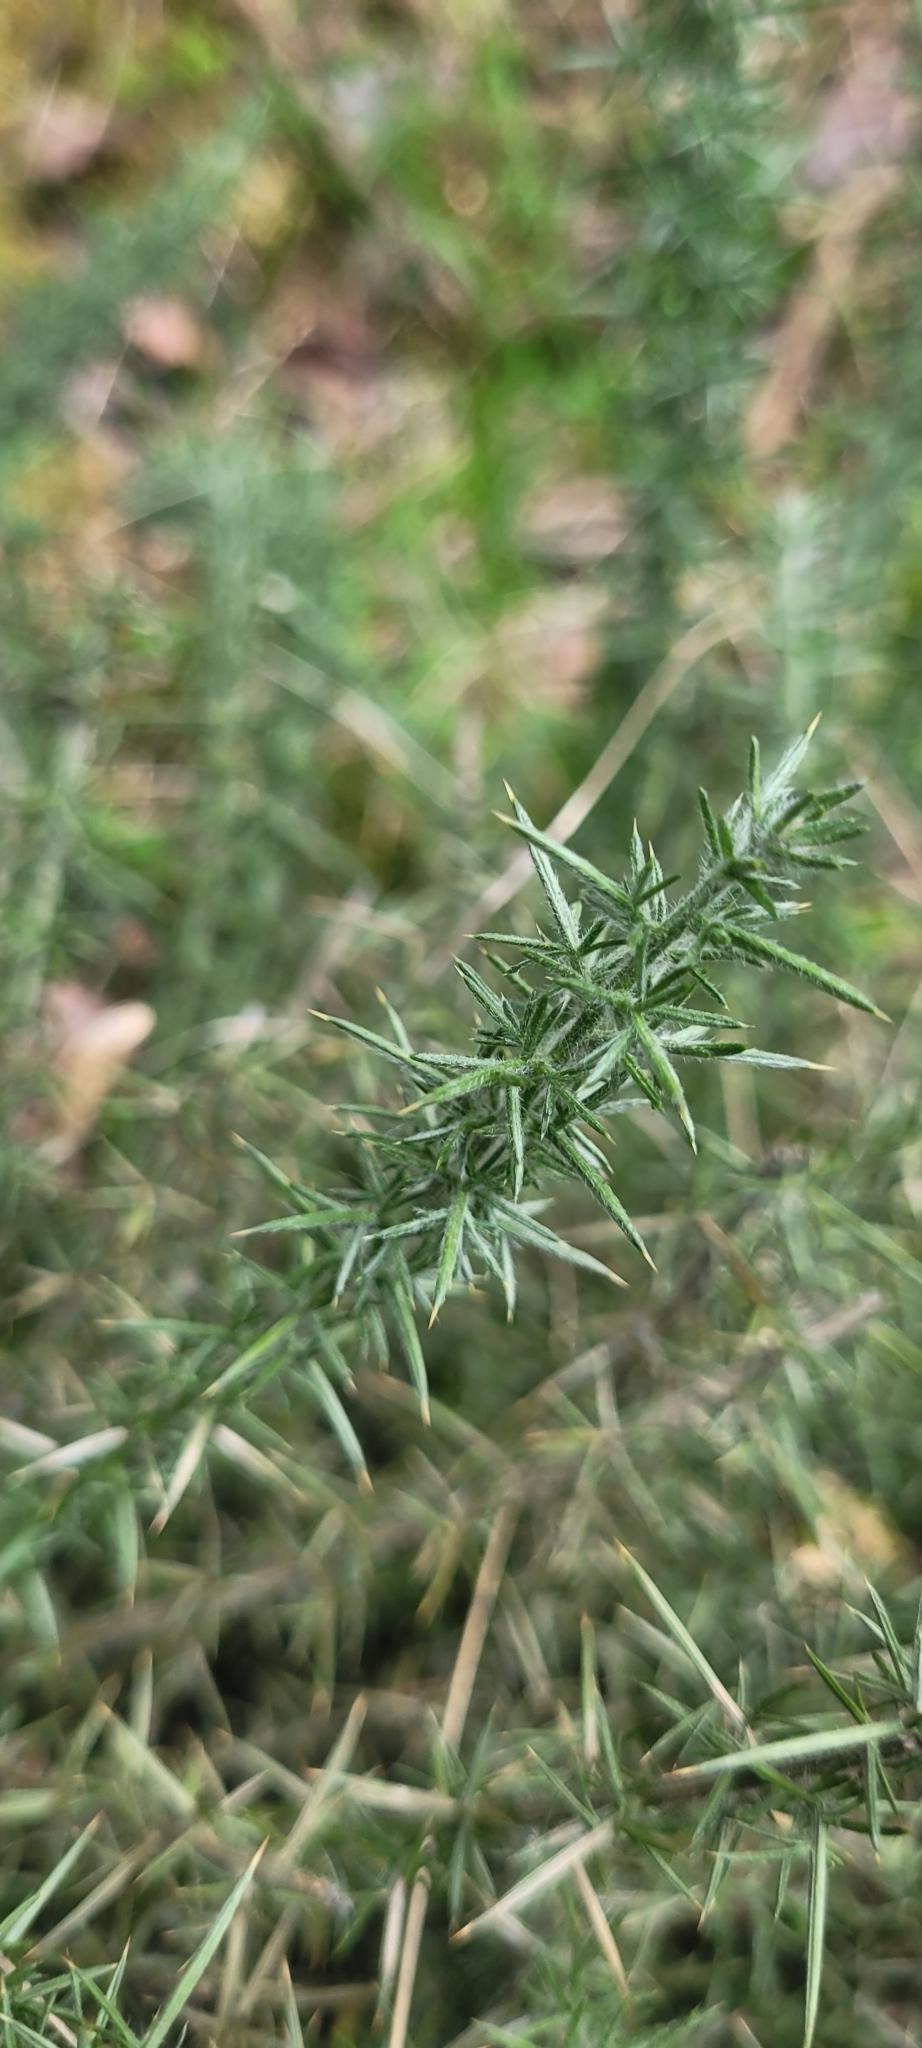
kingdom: Plantae
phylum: Tracheophyta
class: Magnoliopsida
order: Fabales
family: Fabaceae
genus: Ulex
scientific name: Ulex europaeus
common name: Common gorse
